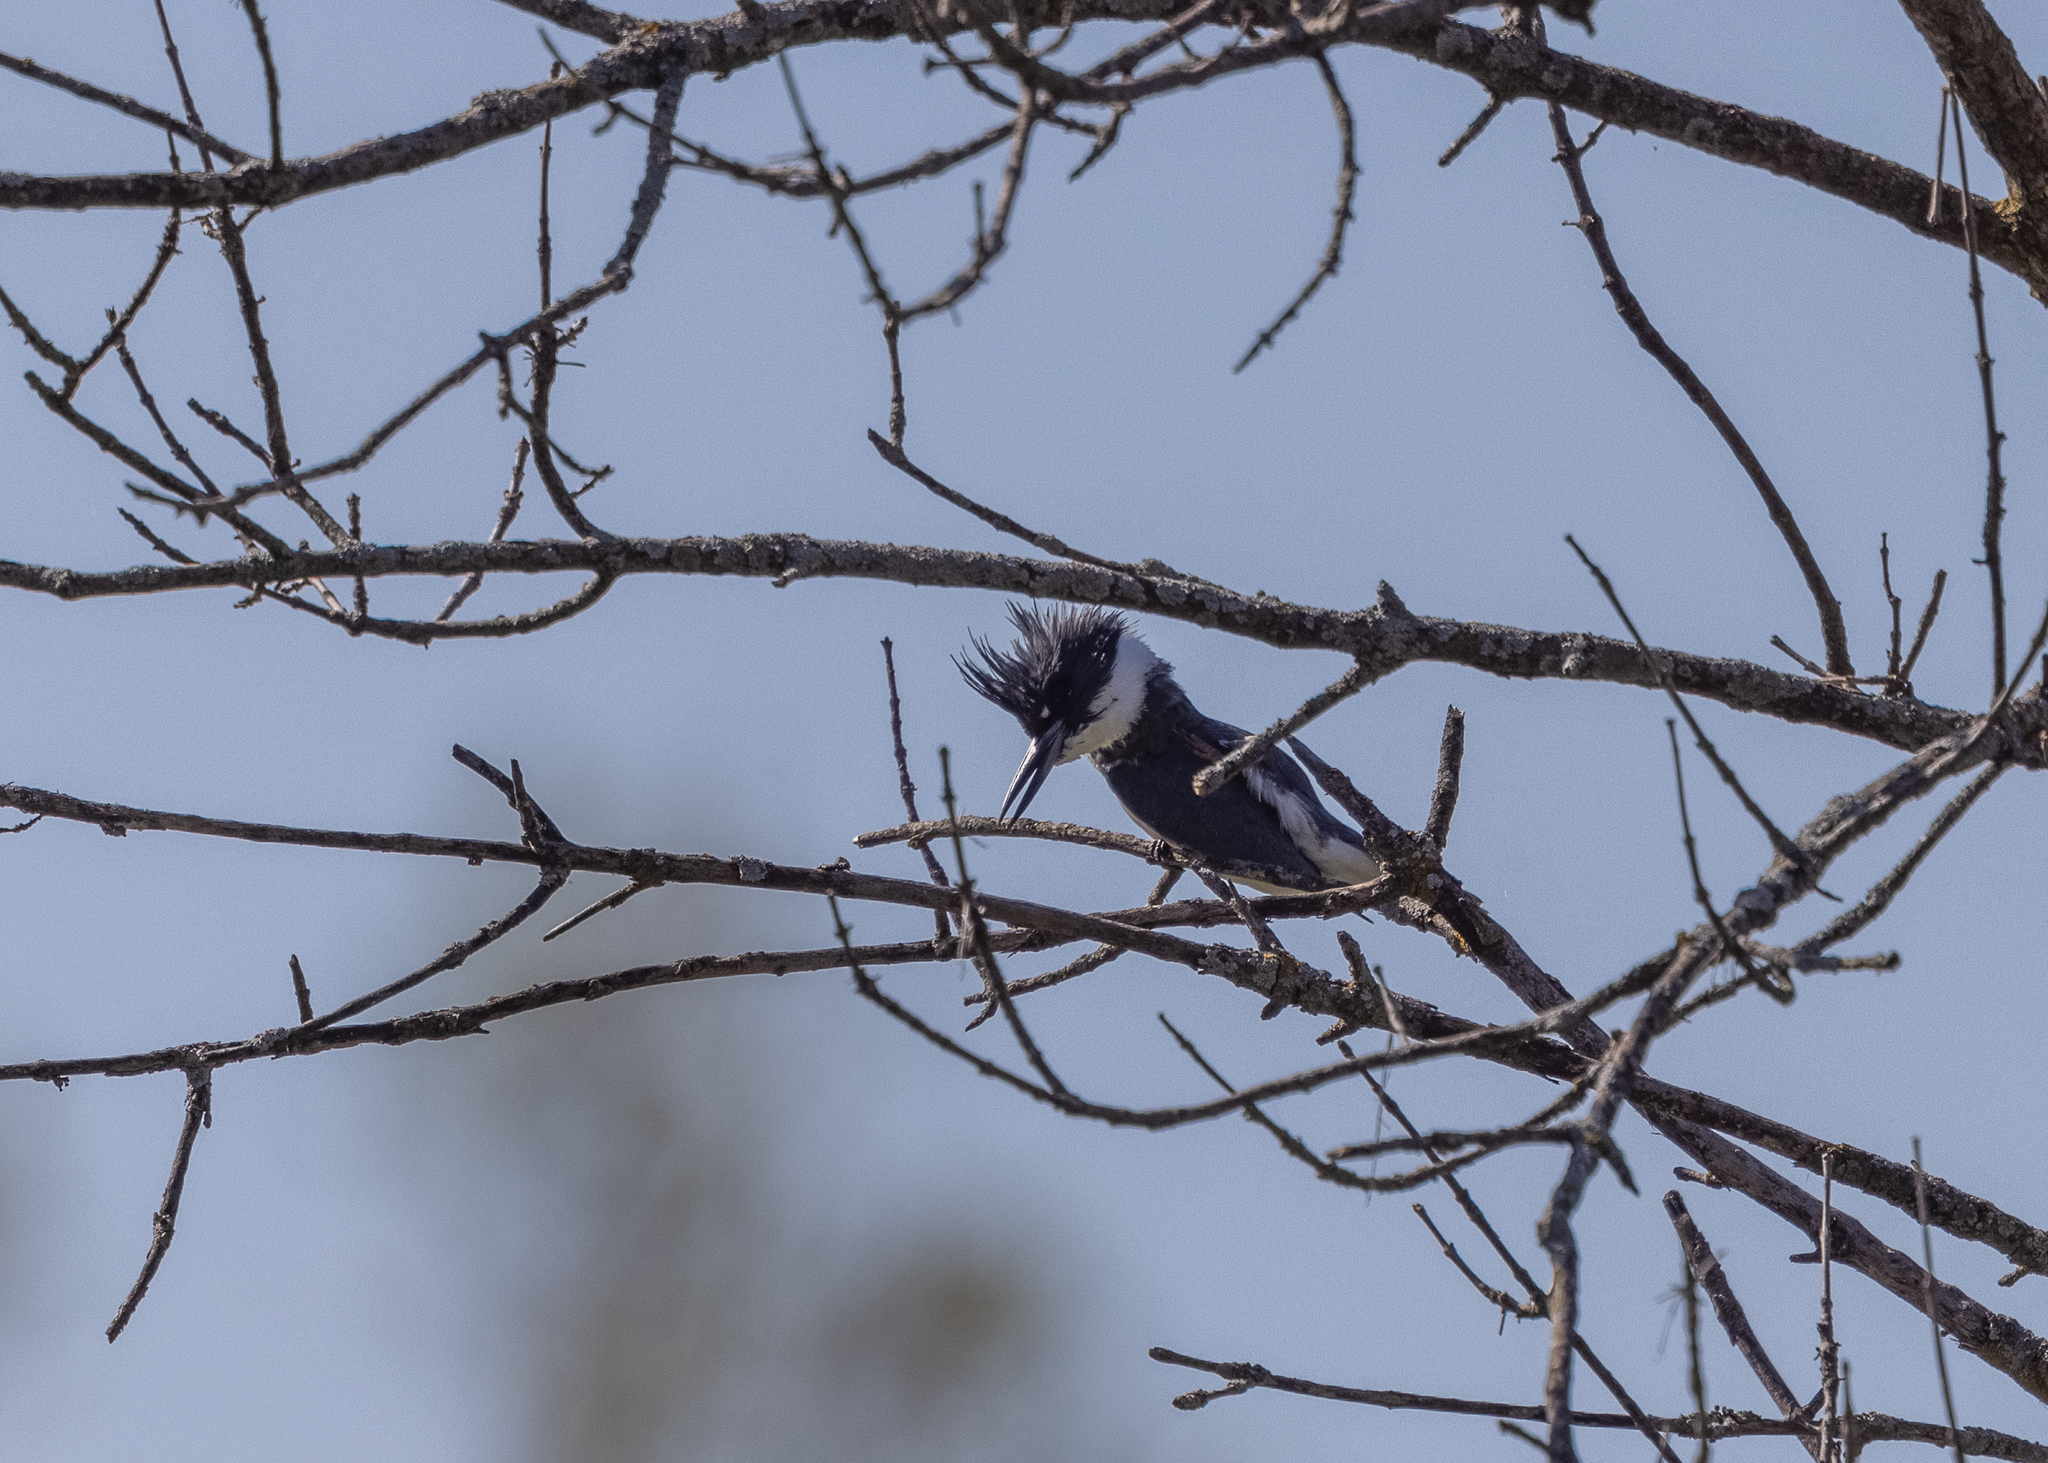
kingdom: Animalia
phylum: Chordata
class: Aves
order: Coraciiformes
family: Alcedinidae
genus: Megaceryle
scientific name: Megaceryle alcyon
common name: Belted kingfisher
